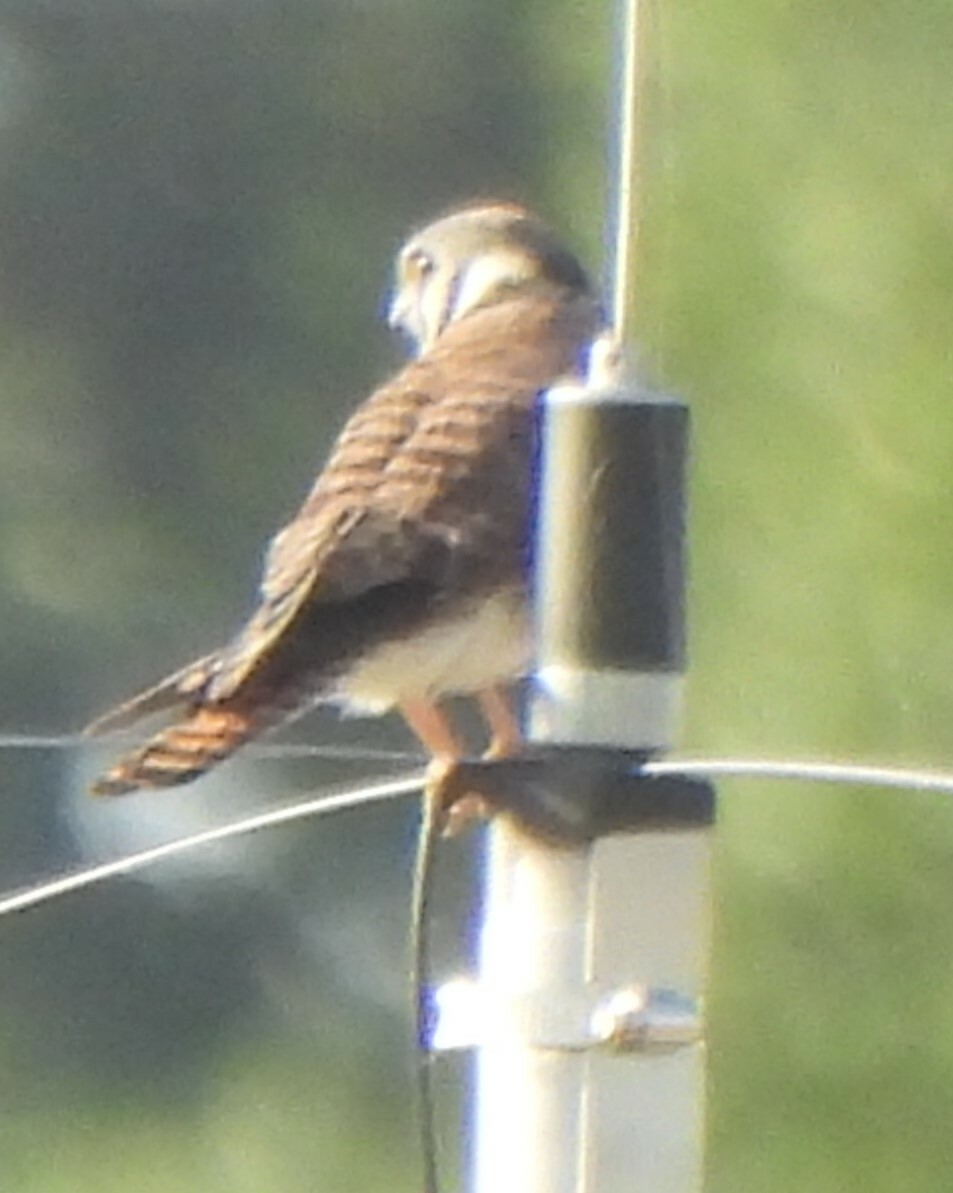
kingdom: Animalia
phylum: Chordata
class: Aves
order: Falconiformes
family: Falconidae
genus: Falco
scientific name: Falco sparverius
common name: American kestrel
